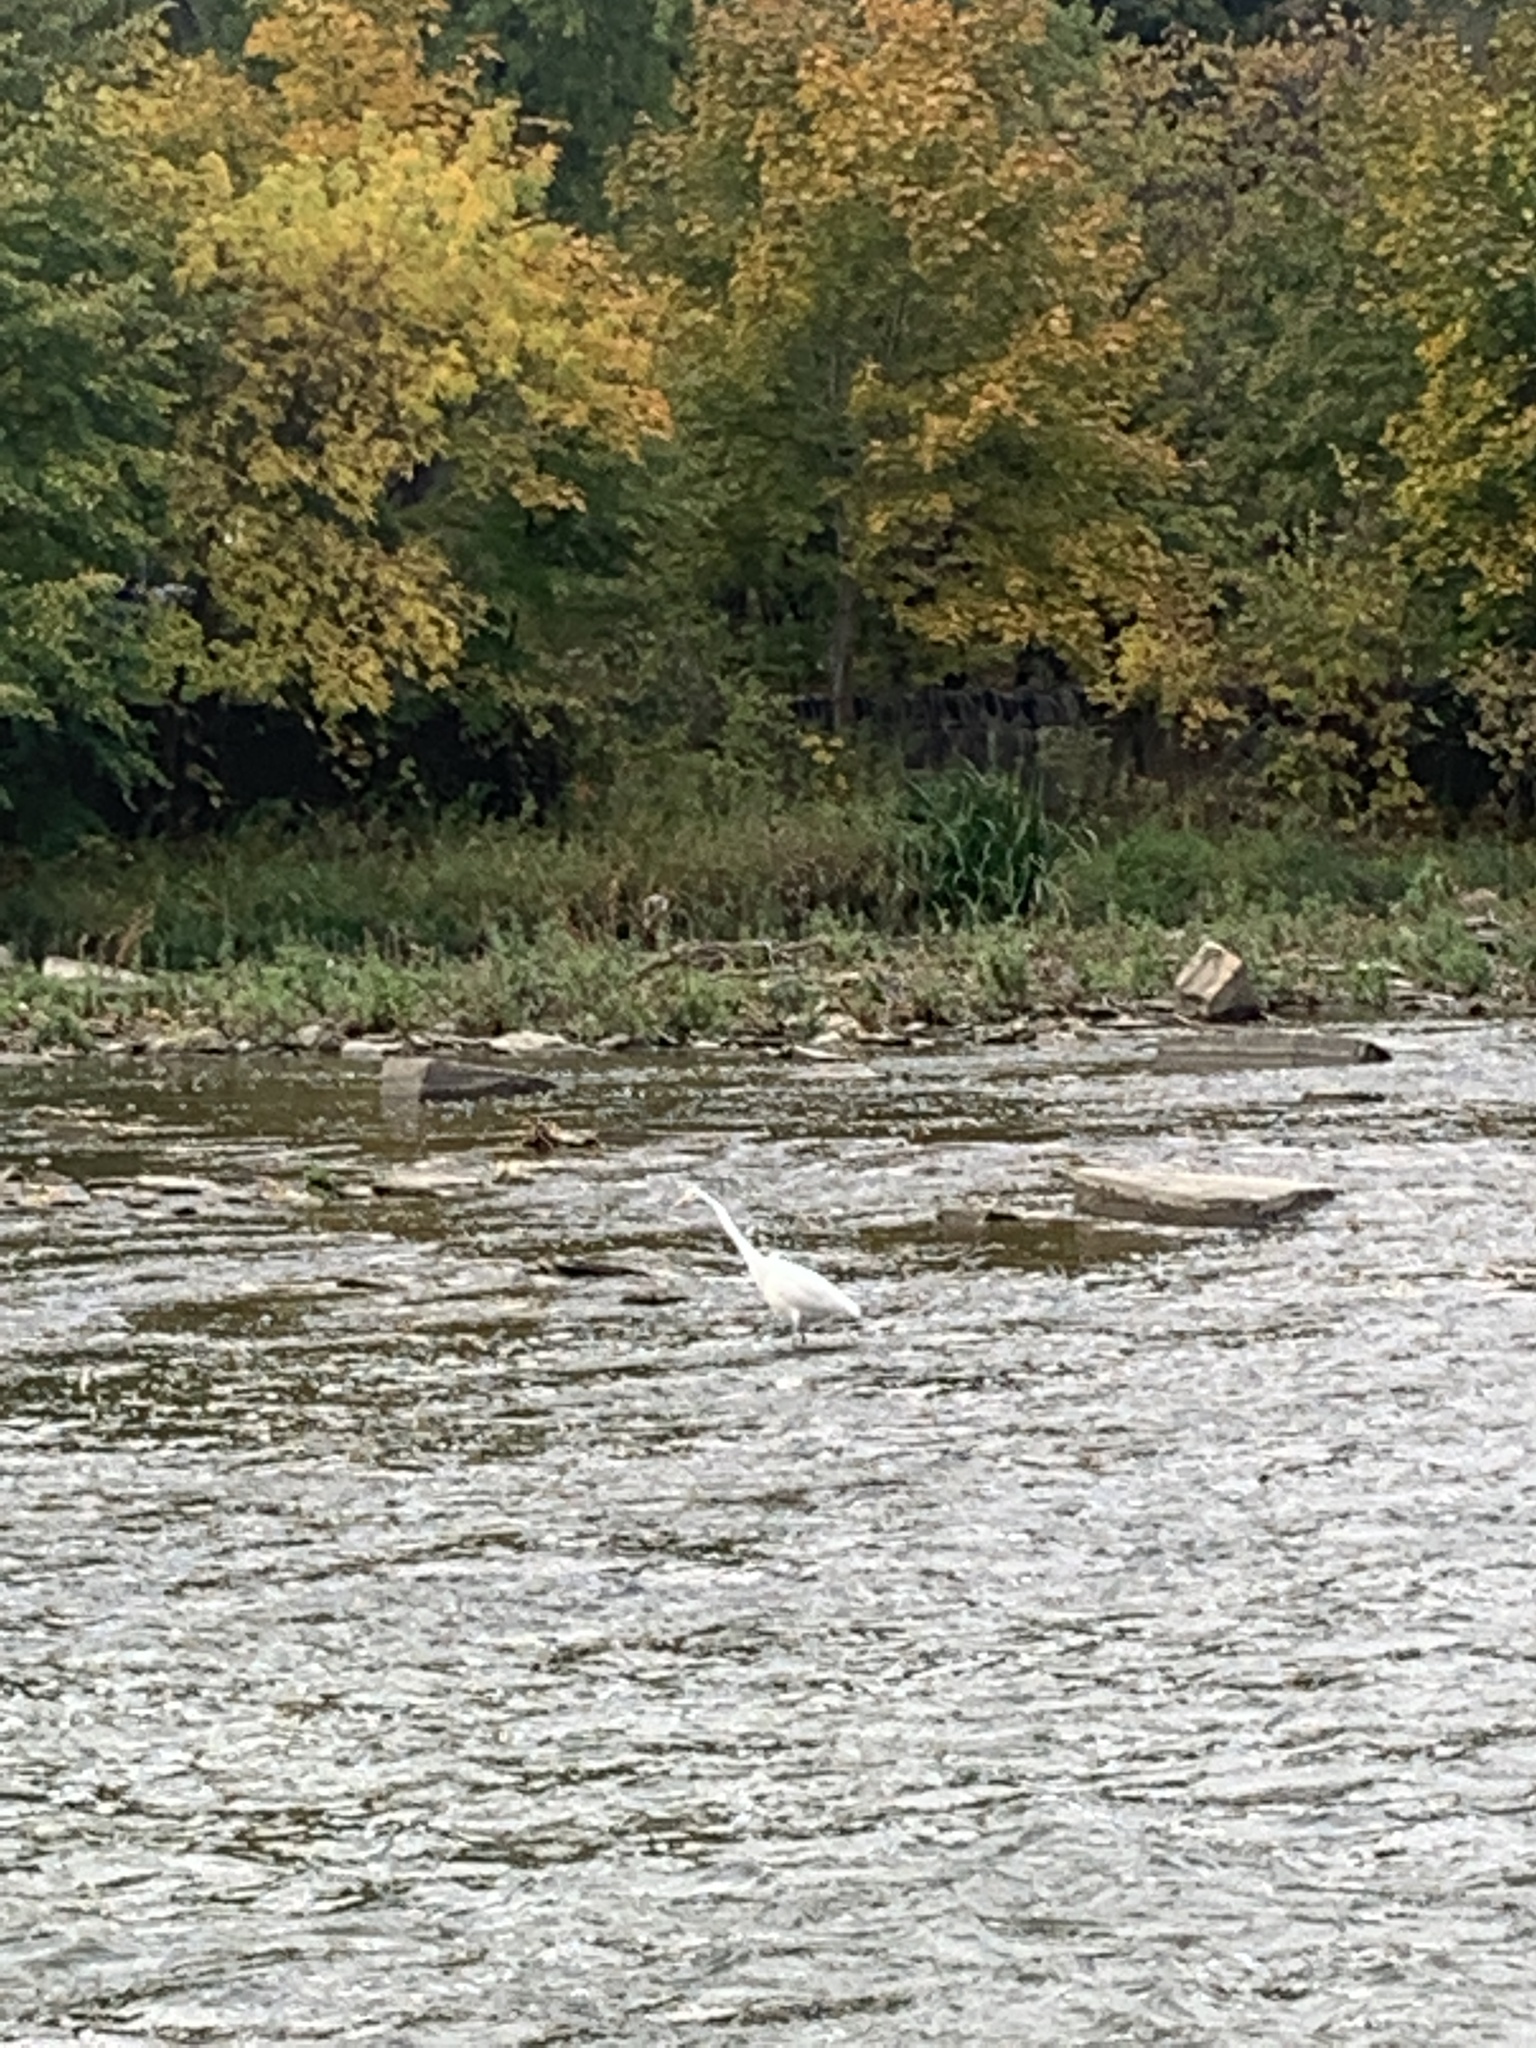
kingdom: Animalia
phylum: Chordata
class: Aves
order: Pelecaniformes
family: Ardeidae
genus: Ardea
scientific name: Ardea alba
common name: Great egret
